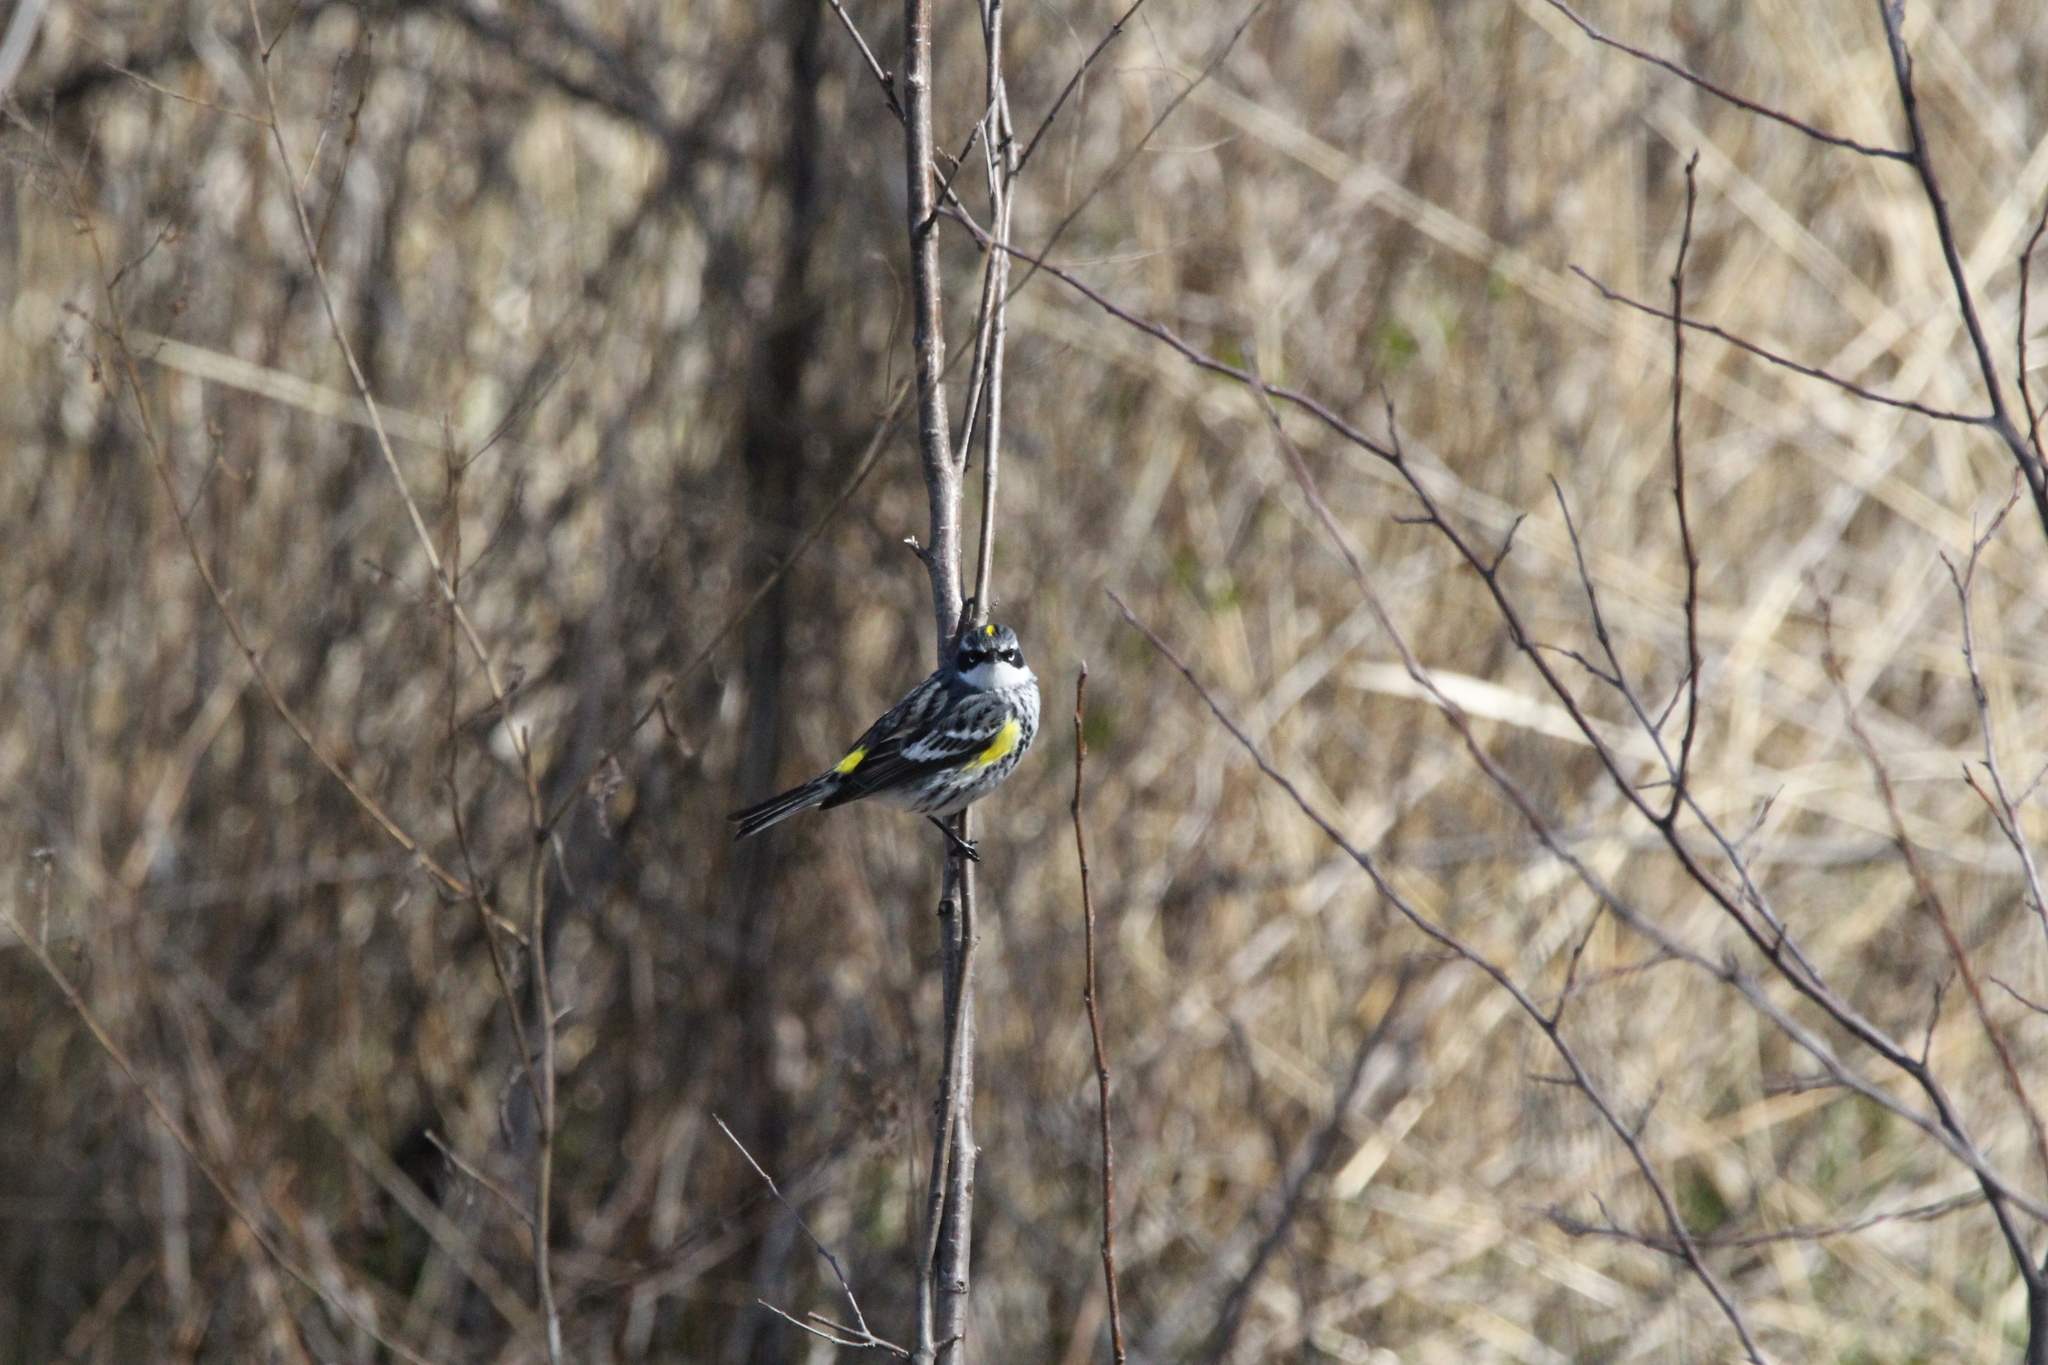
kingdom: Animalia
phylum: Chordata
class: Aves
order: Passeriformes
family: Parulidae
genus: Setophaga
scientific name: Setophaga coronata
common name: Myrtle warbler
